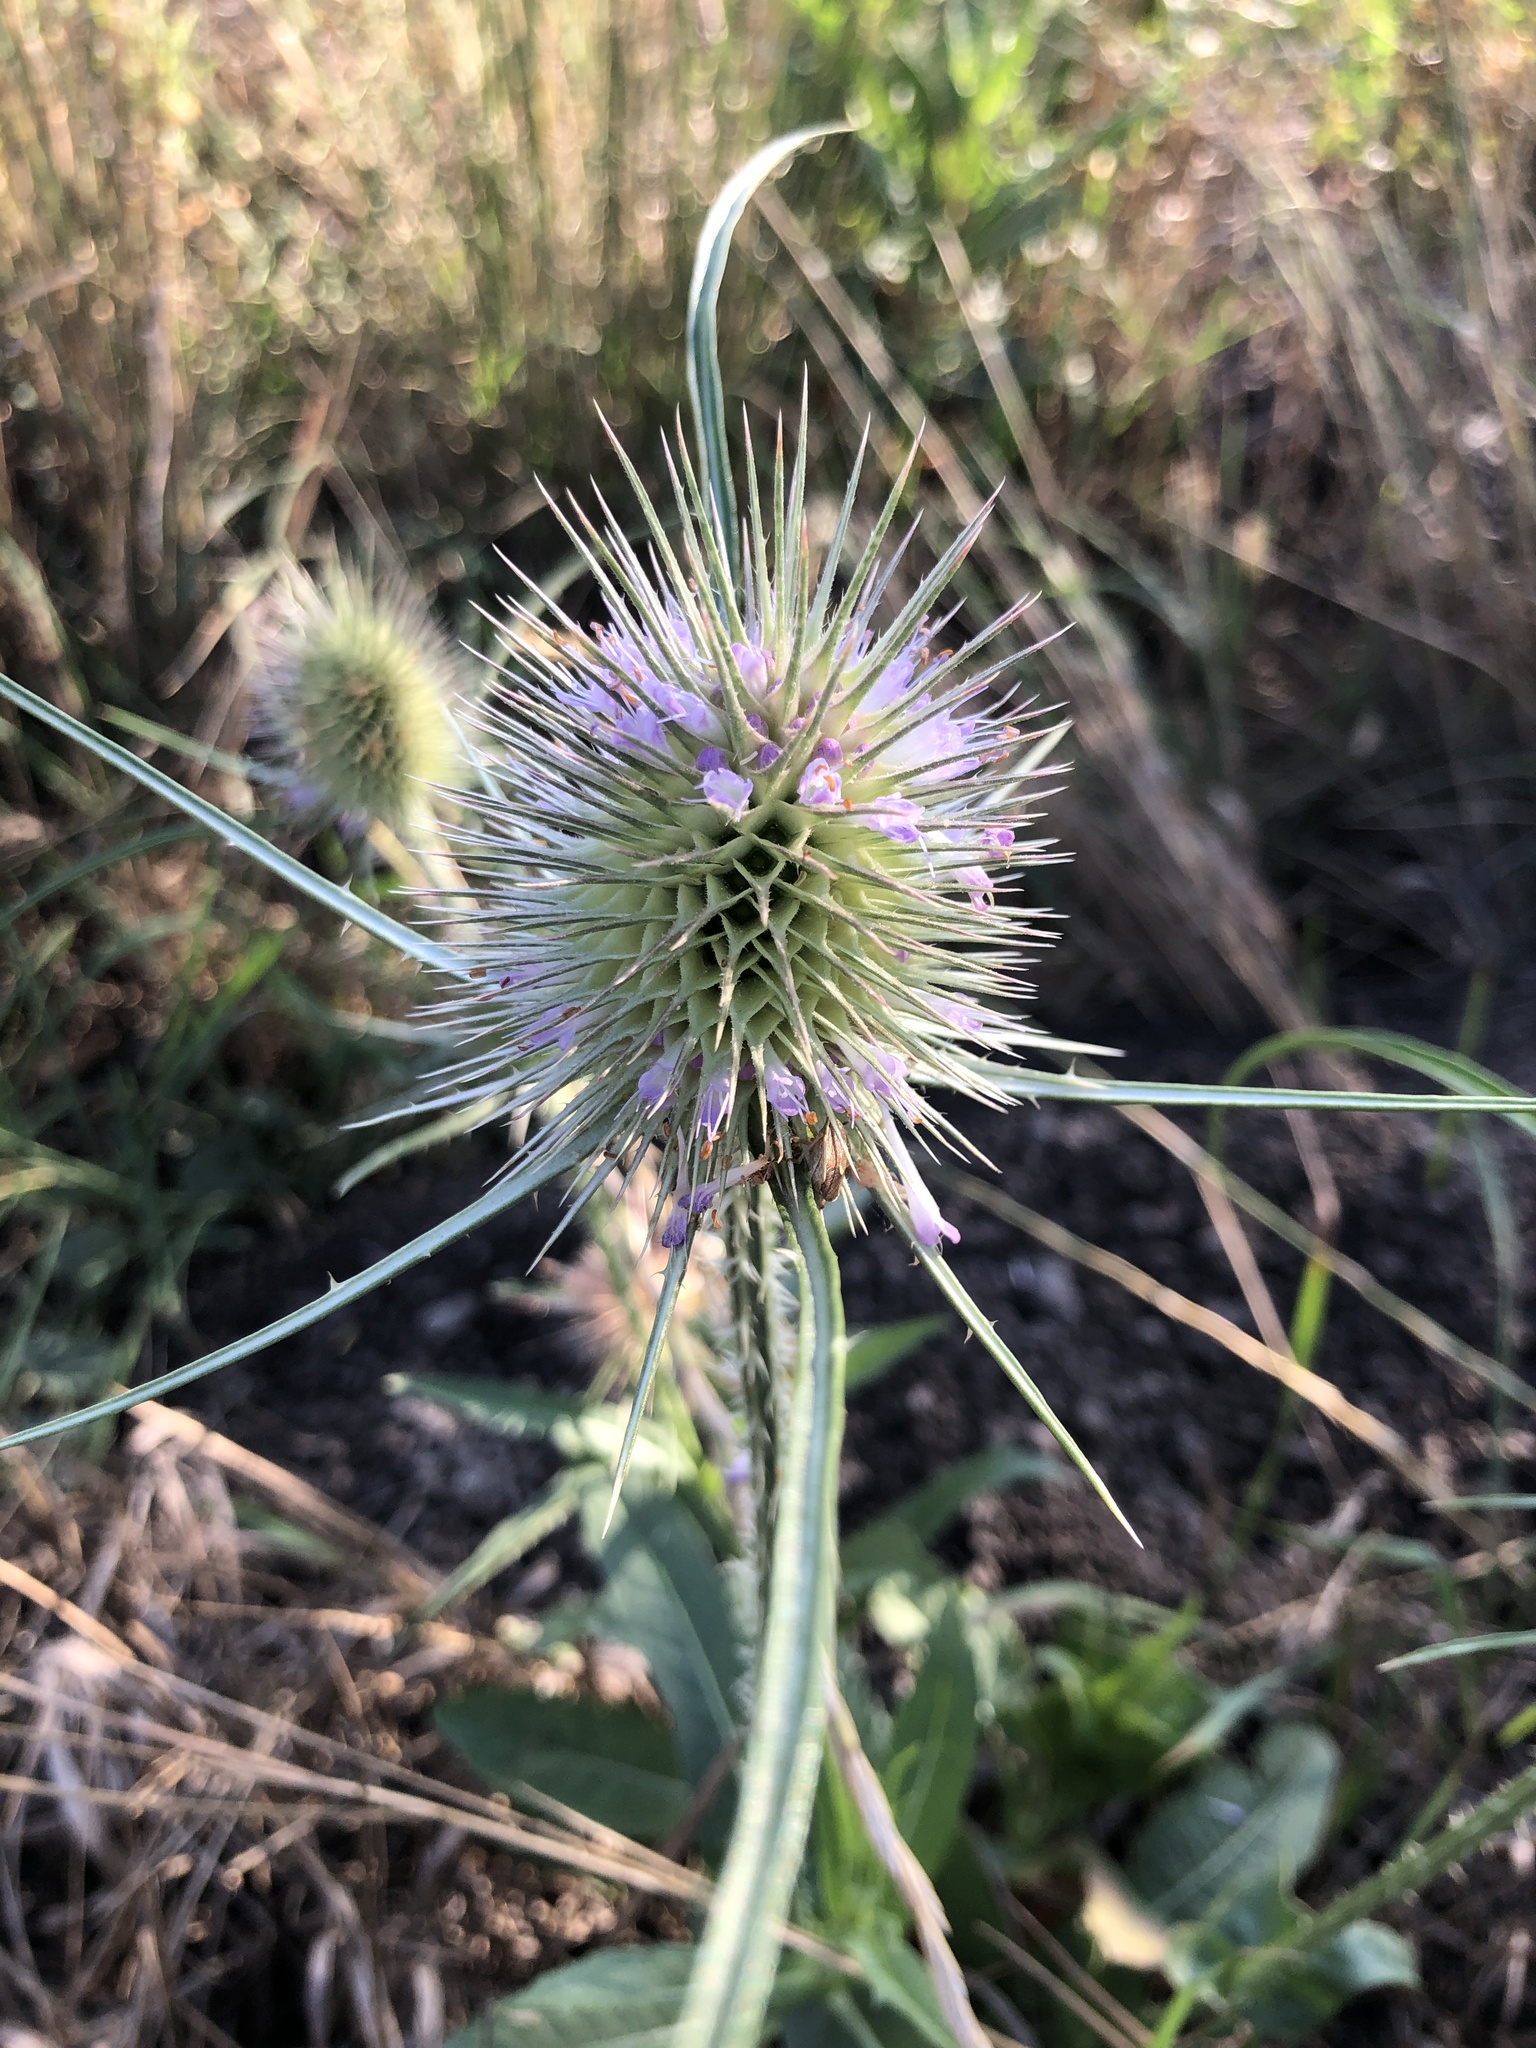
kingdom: Plantae
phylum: Tracheophyta
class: Magnoliopsida
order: Dipsacales
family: Caprifoliaceae
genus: Dipsacus
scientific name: Dipsacus fullonum
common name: Teasel
